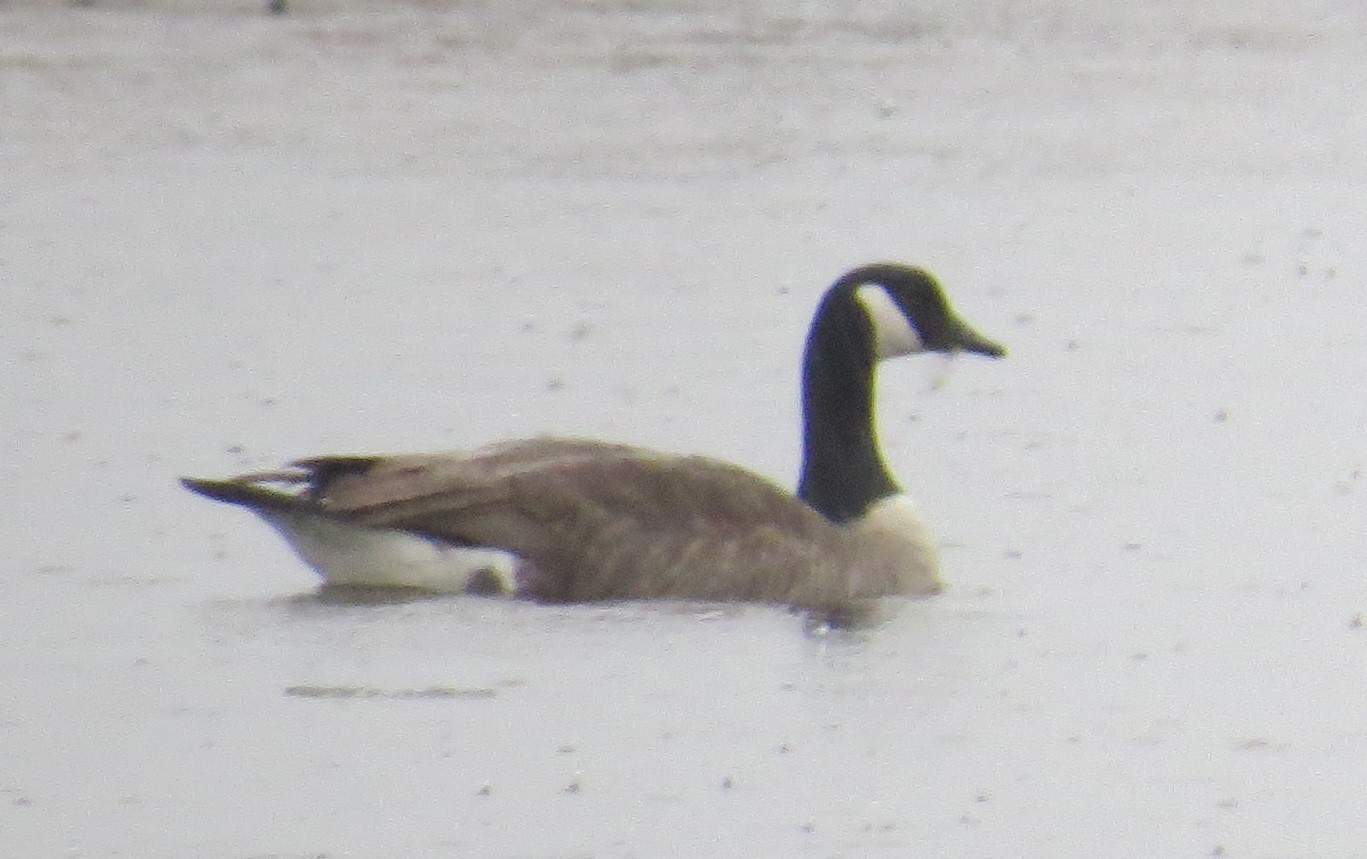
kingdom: Animalia
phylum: Chordata
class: Aves
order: Anseriformes
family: Anatidae
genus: Branta
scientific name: Branta canadensis
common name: Canada goose
